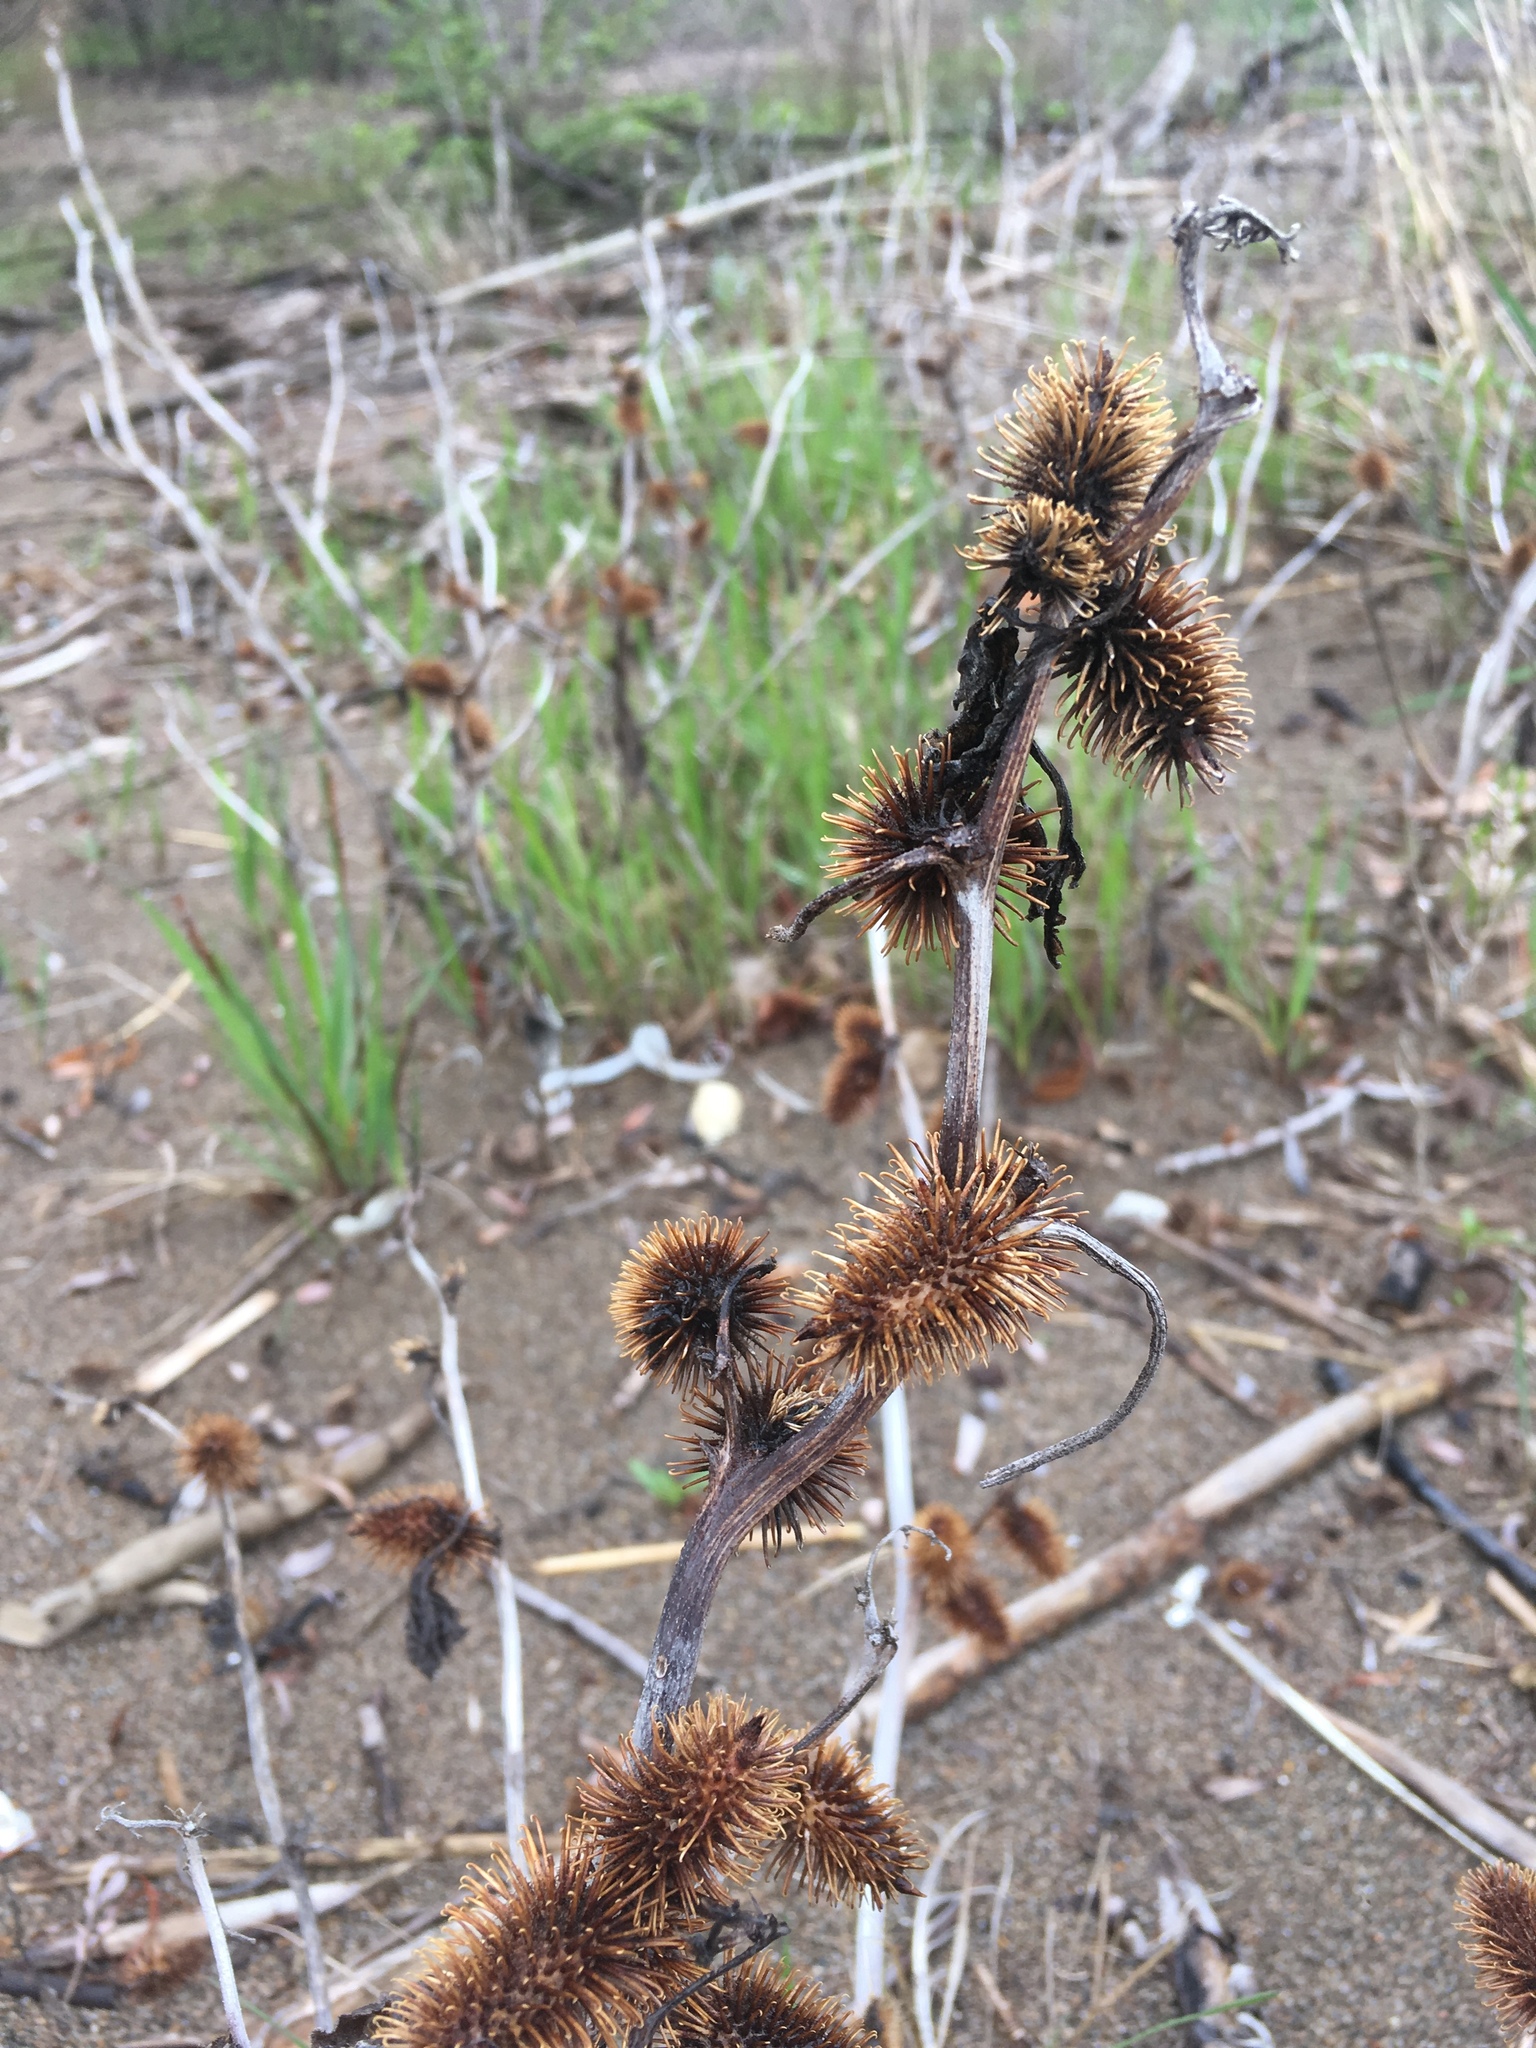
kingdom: Plantae
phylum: Tracheophyta
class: Magnoliopsida
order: Asterales
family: Asteraceae
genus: Xanthium
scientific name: Xanthium strumarium
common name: Rough cocklebur
